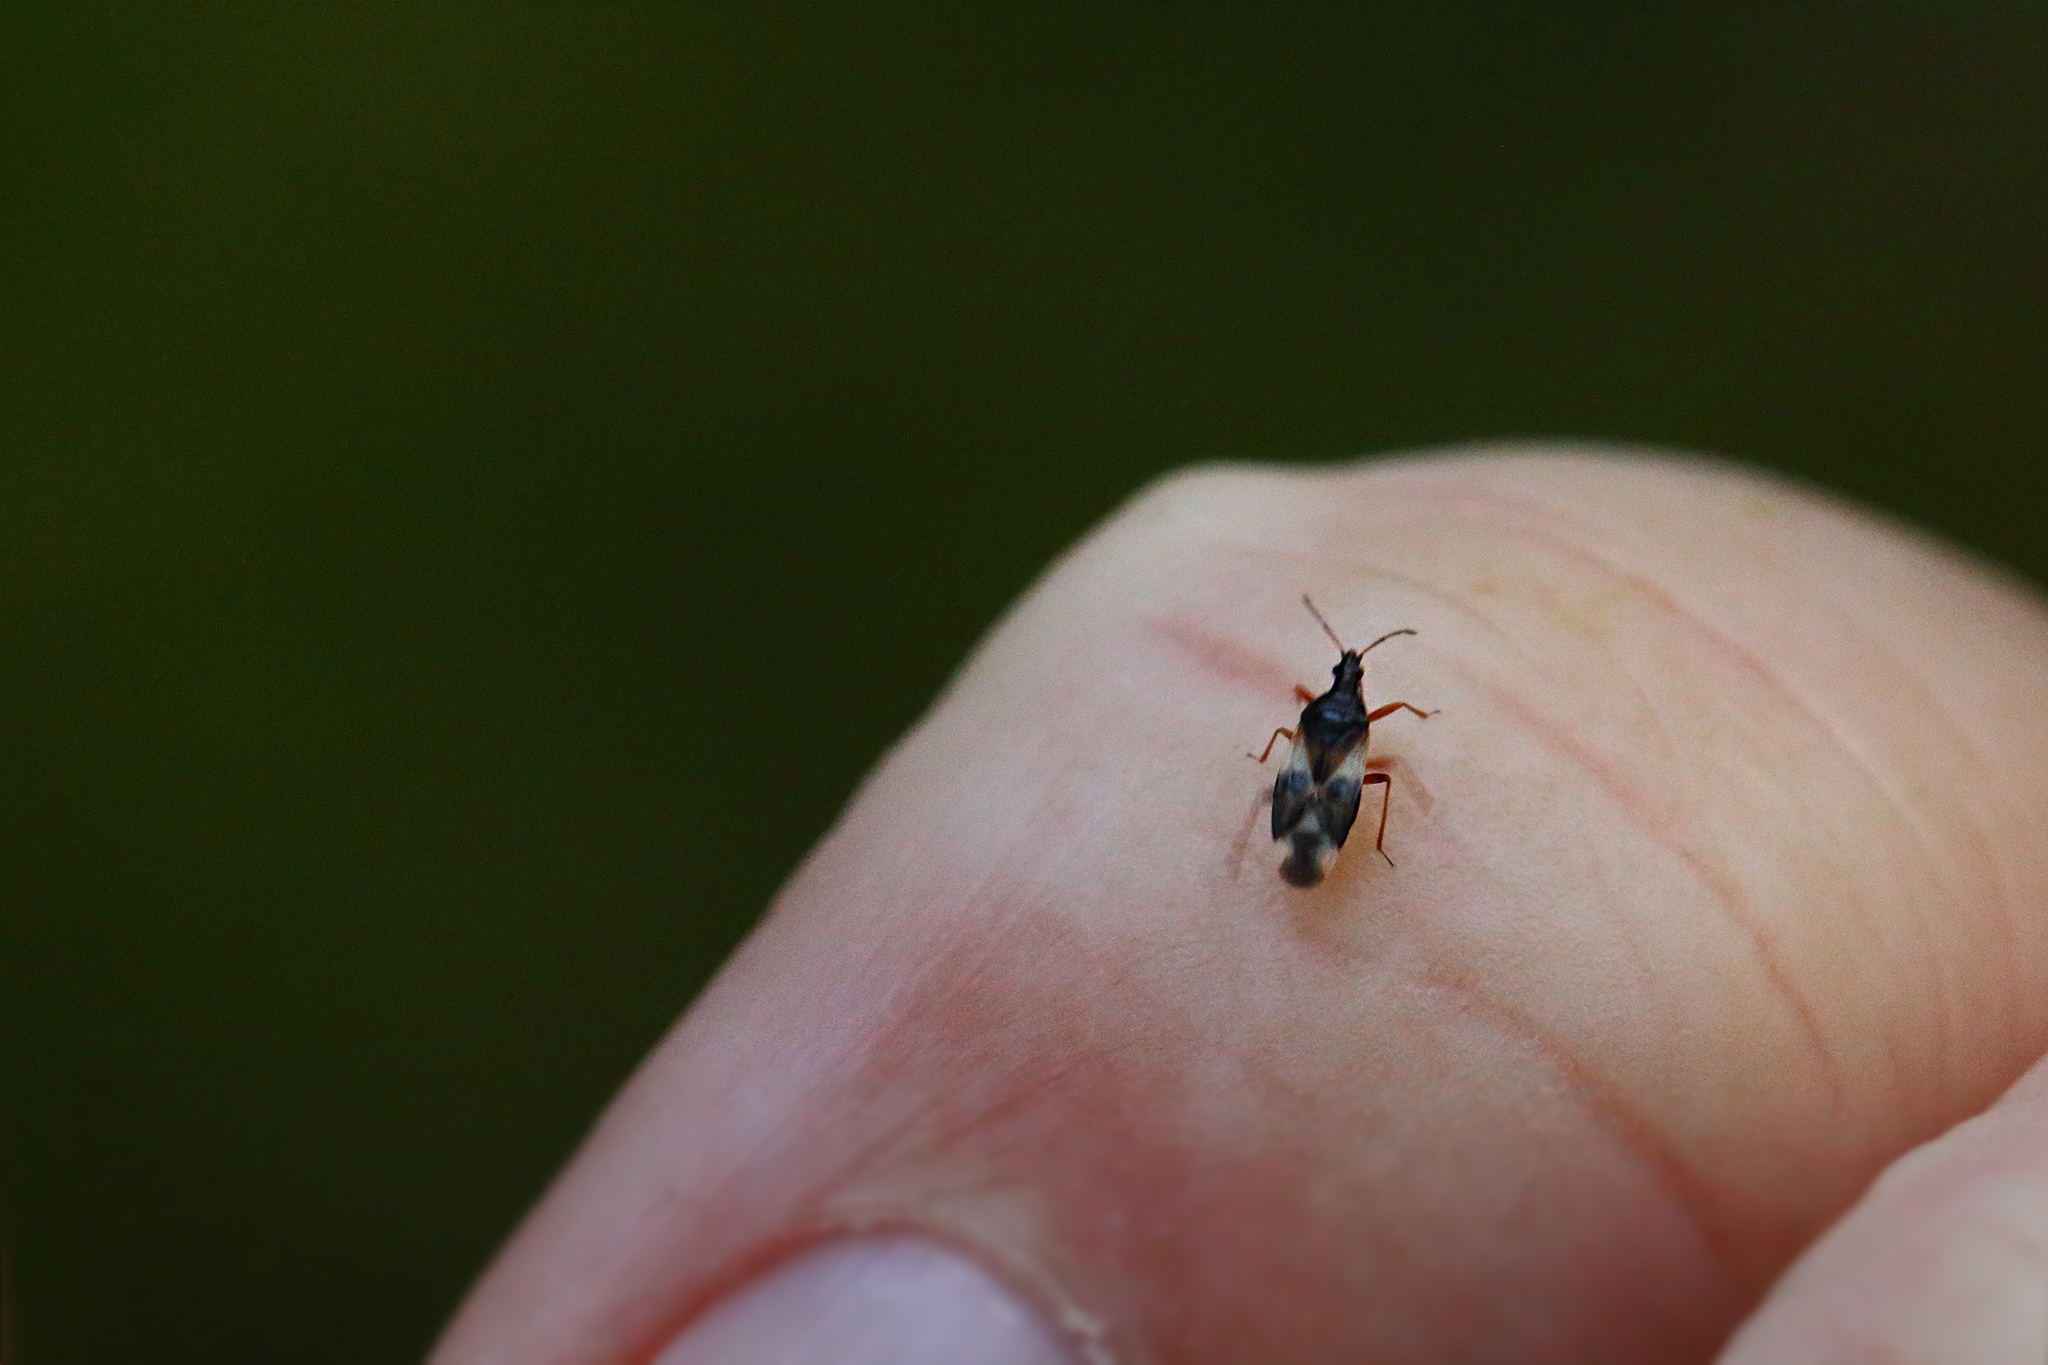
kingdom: Animalia
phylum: Arthropoda
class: Insecta
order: Hemiptera
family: Anthocoridae
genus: Anthocoris
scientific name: Anthocoris nemorum
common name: Minute pirate bug
